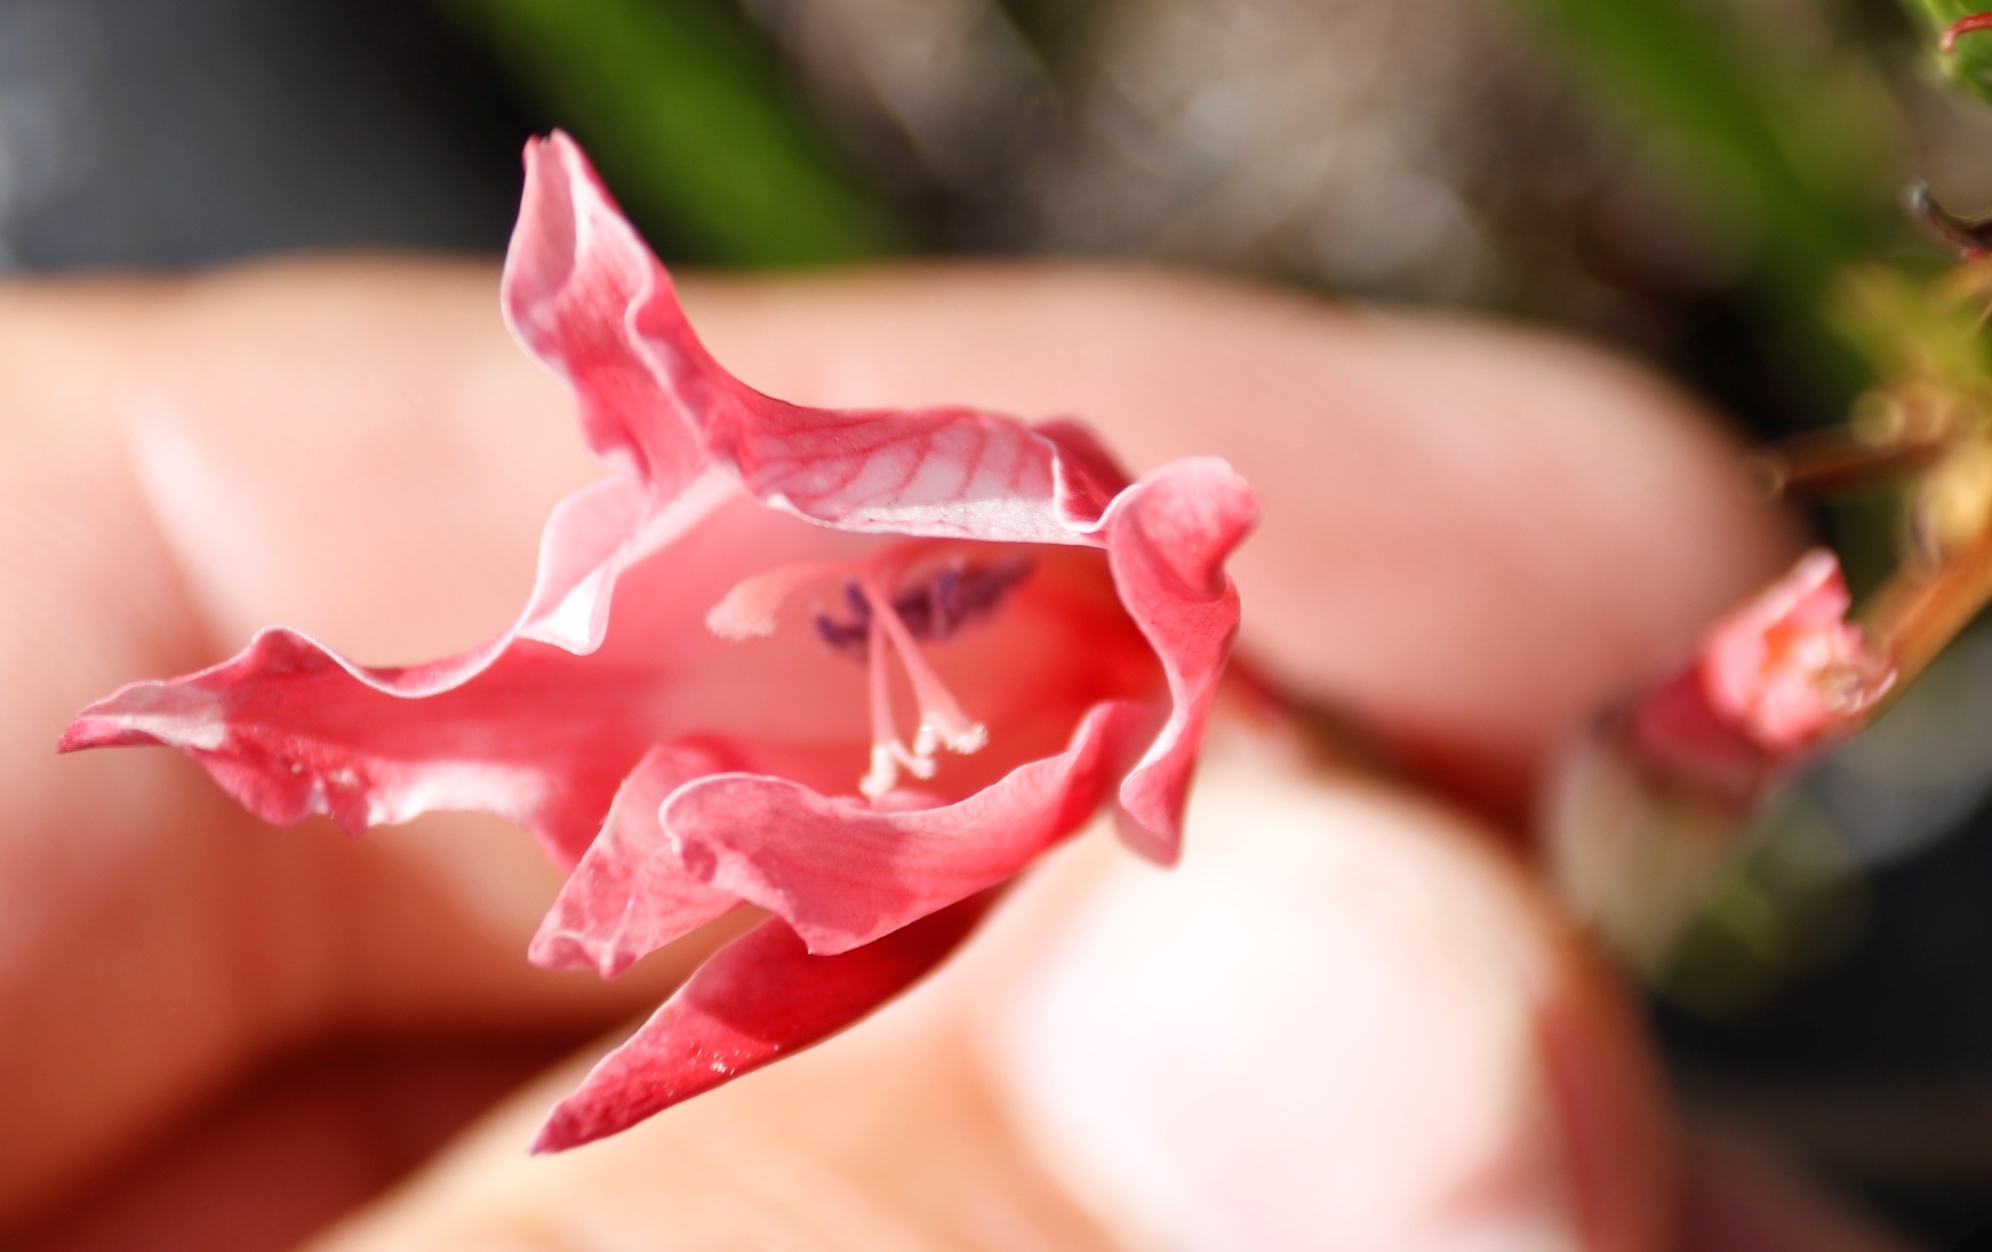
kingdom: Plantae
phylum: Tracheophyta
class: Liliopsida
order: Asparagales
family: Iridaceae
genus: Gladiolus
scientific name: Gladiolus carneus
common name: Painted-lady
